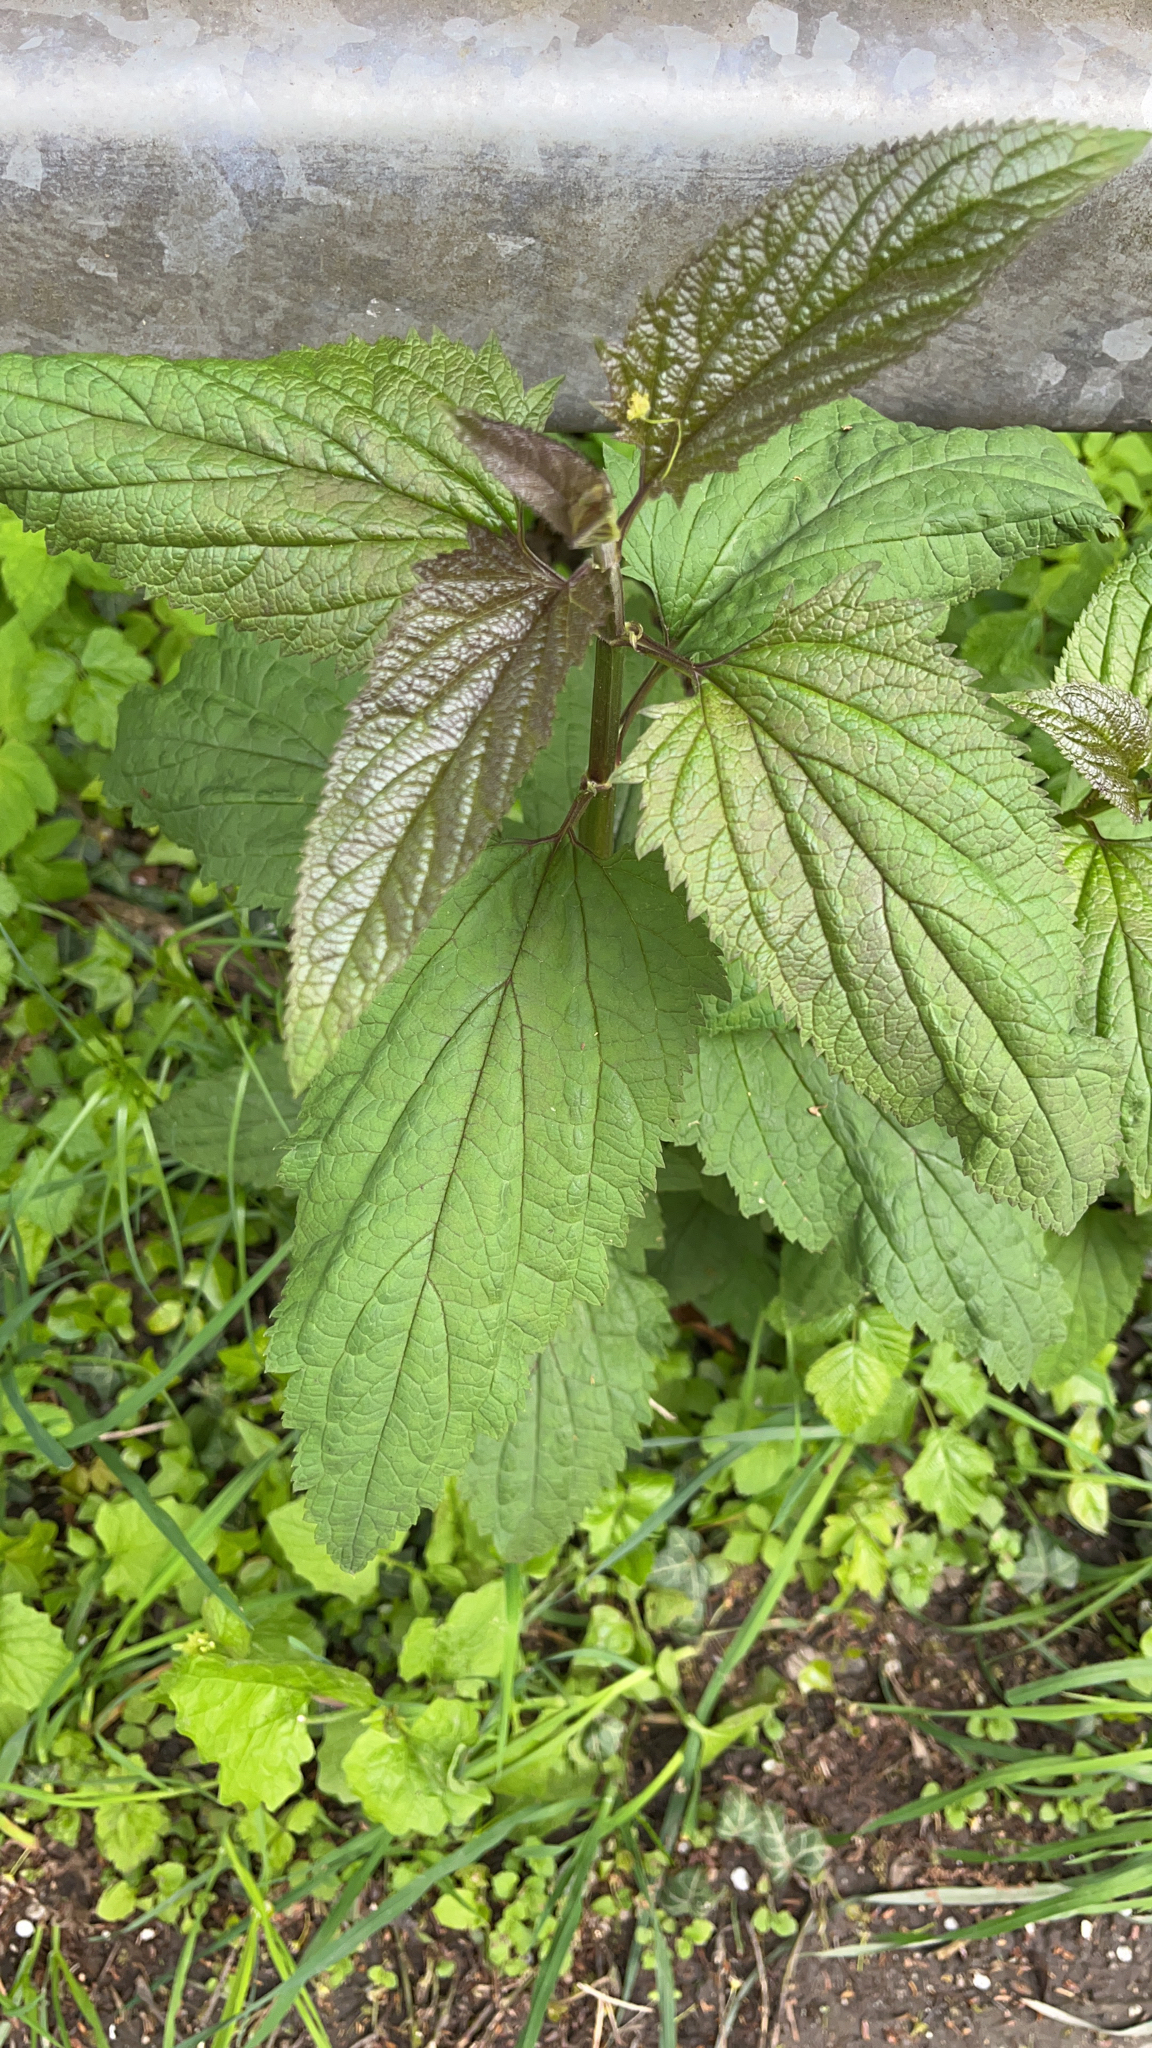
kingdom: Plantae
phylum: Tracheophyta
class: Magnoliopsida
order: Lamiales
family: Scrophulariaceae
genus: Scrophularia
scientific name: Scrophularia nodosa
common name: Common figwort
